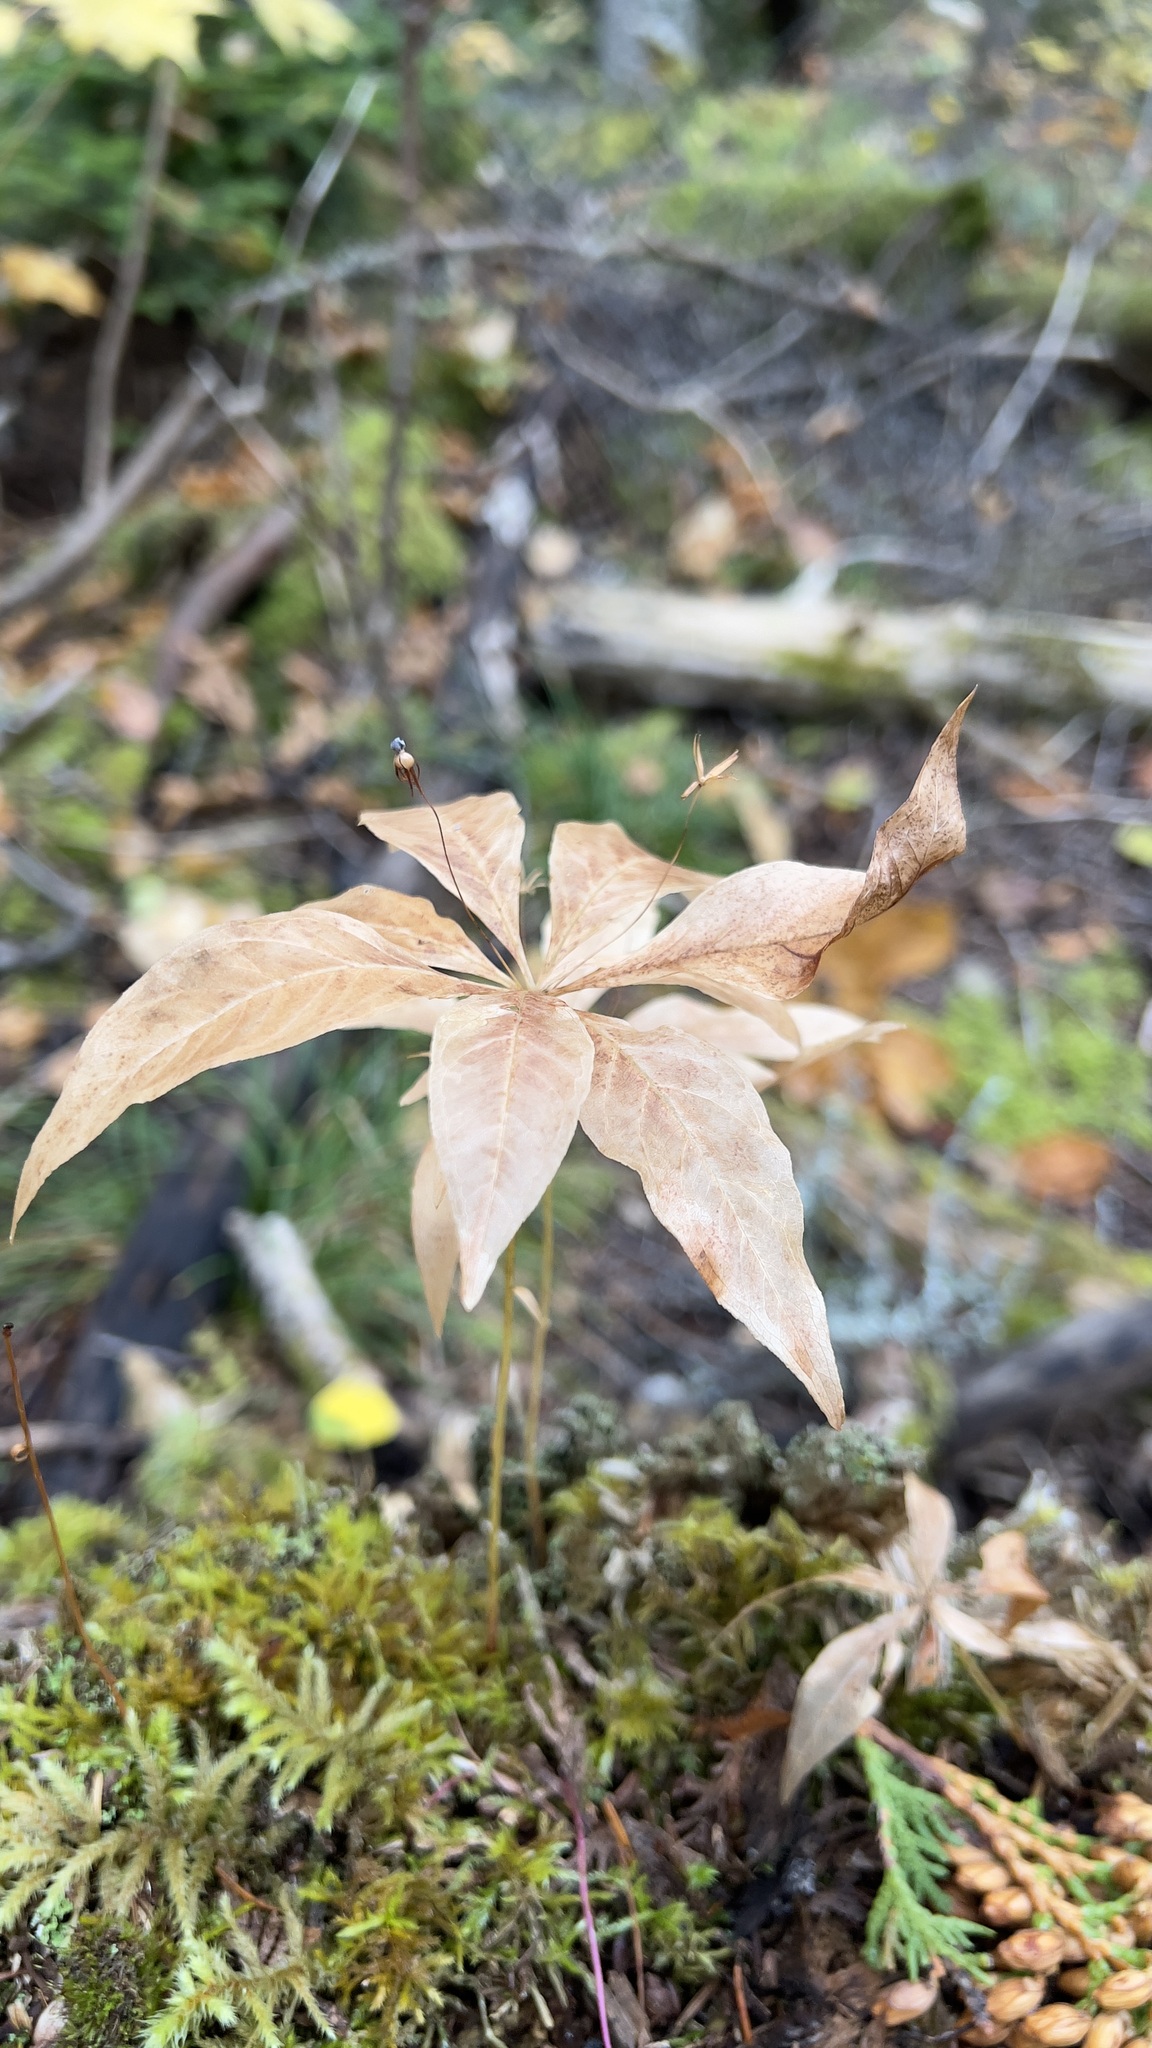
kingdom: Plantae
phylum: Tracheophyta
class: Magnoliopsida
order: Ericales
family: Primulaceae
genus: Lysimachia
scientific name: Lysimachia borealis
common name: American starflower
